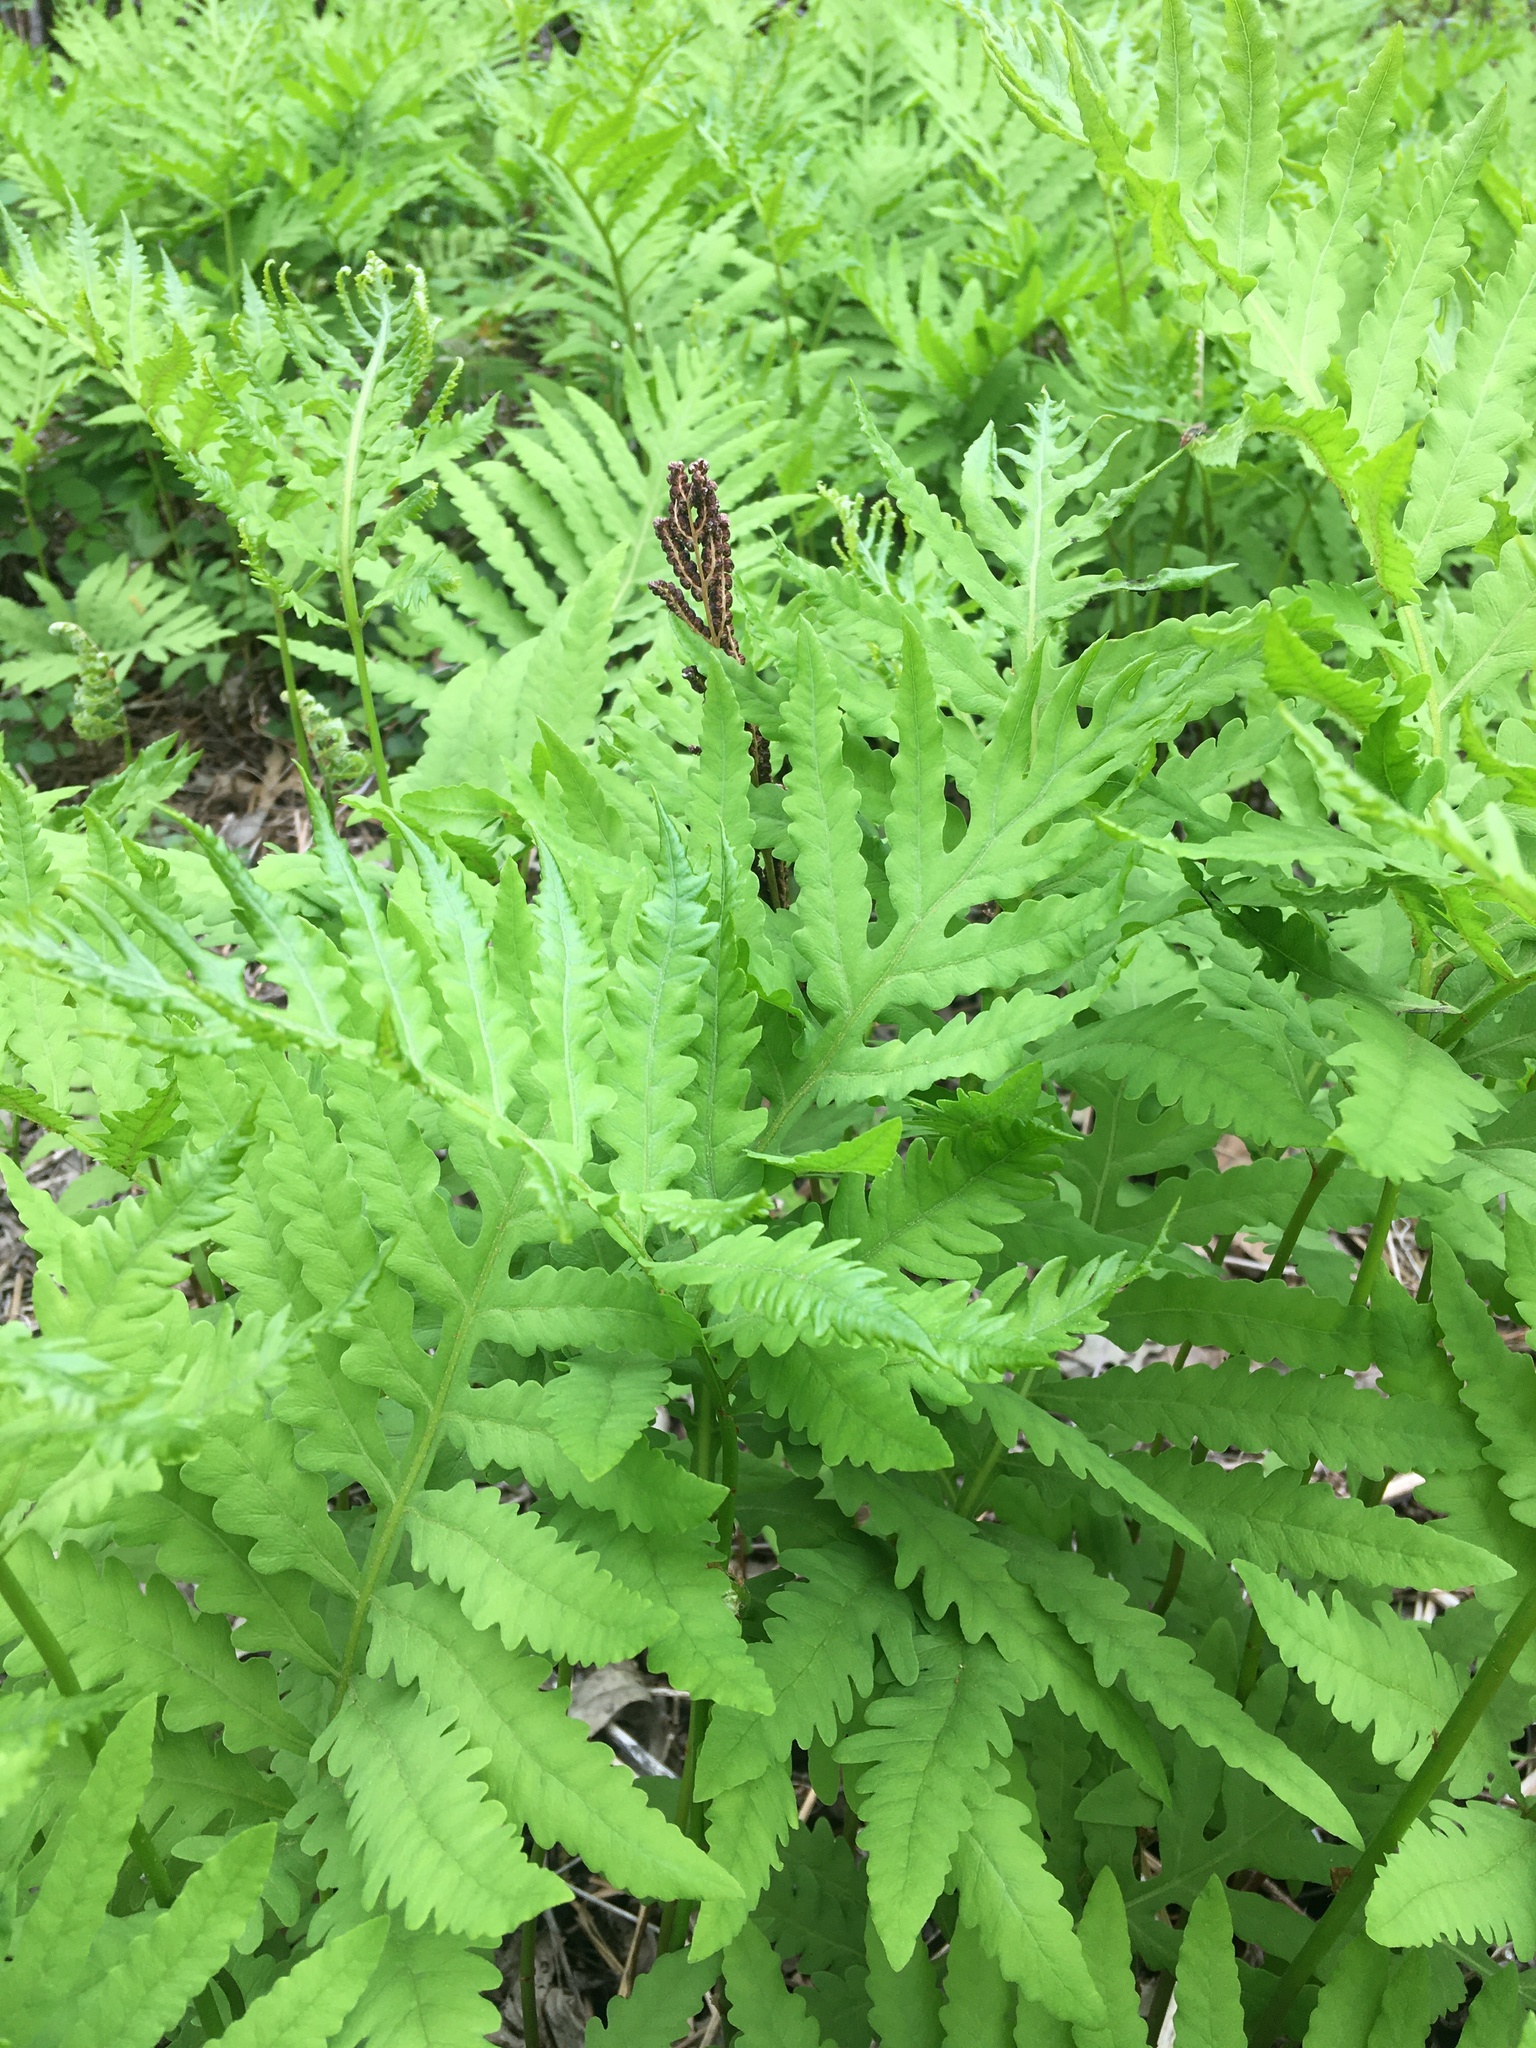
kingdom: Plantae
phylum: Tracheophyta
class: Polypodiopsida
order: Polypodiales
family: Onocleaceae
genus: Onoclea
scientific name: Onoclea sensibilis
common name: Sensitive fern
